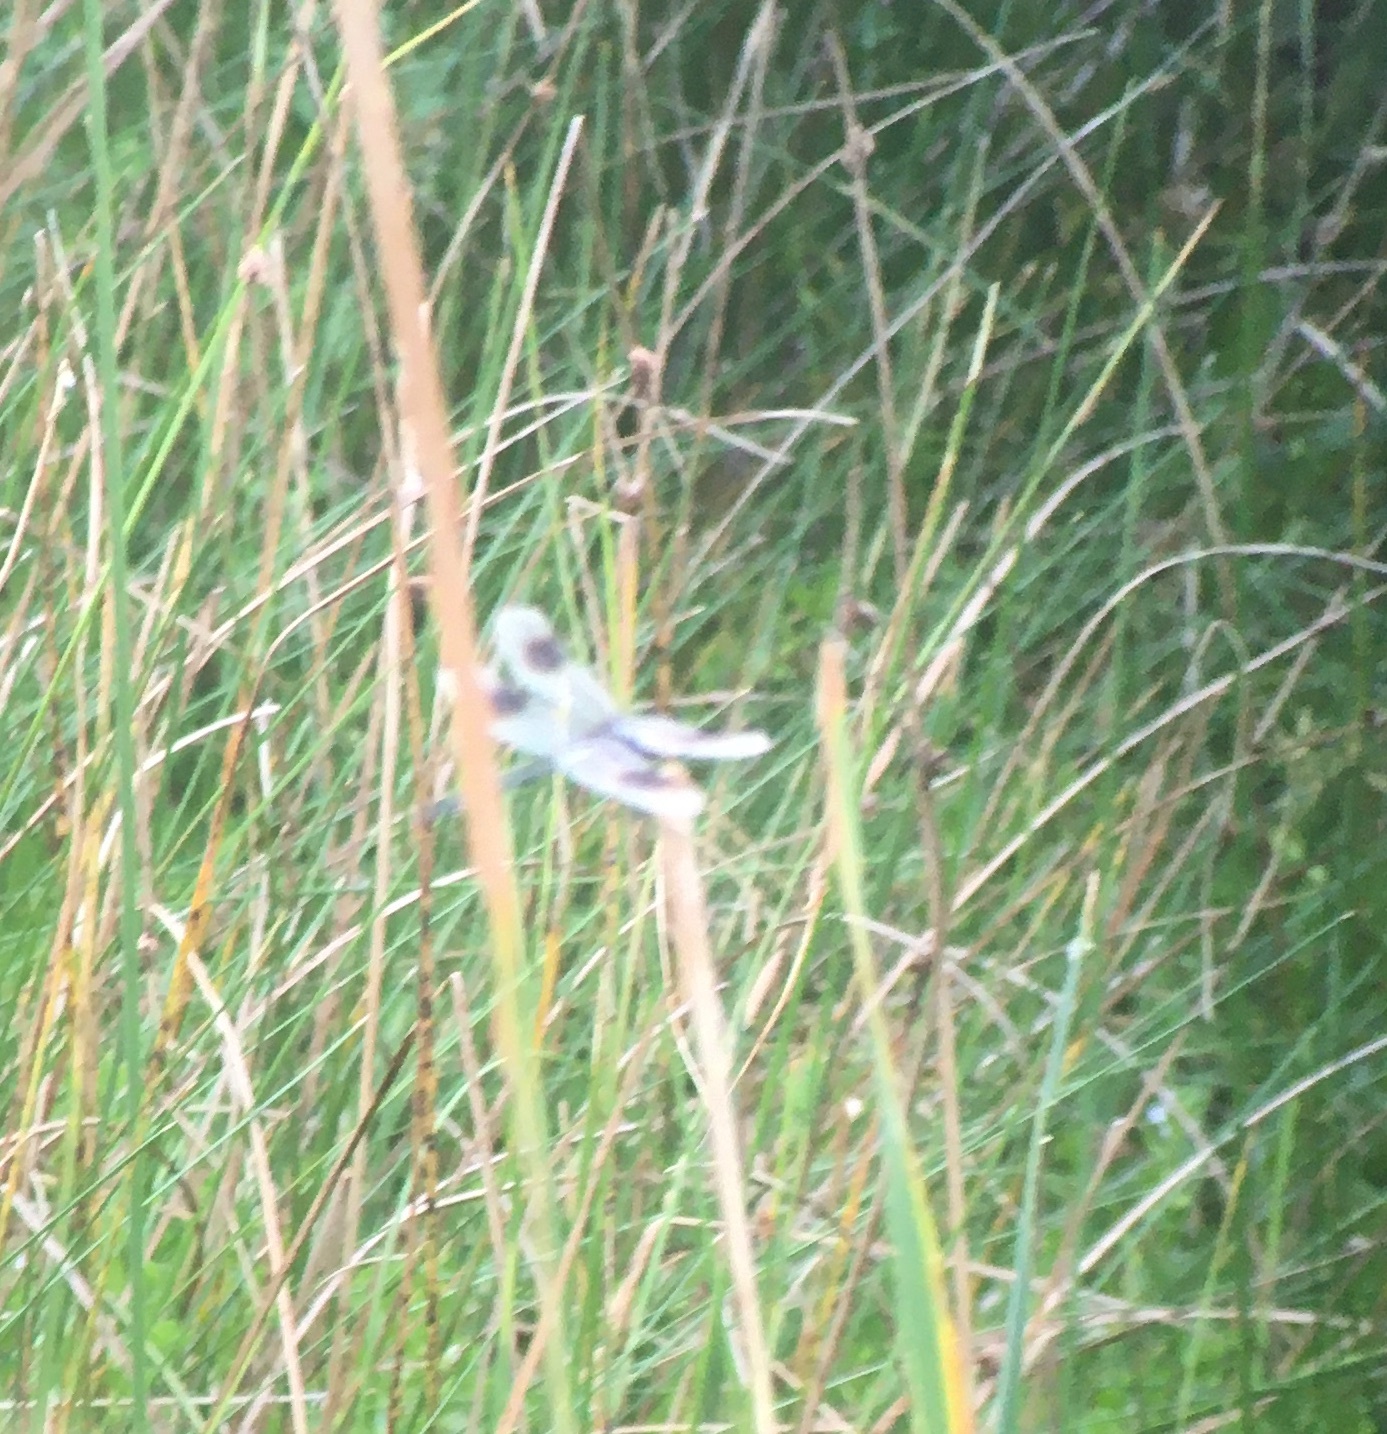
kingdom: Animalia
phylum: Arthropoda
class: Insecta
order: Odonata
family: Libellulidae
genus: Brachymesia
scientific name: Brachymesia gravida
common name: Four-spotted pennant
